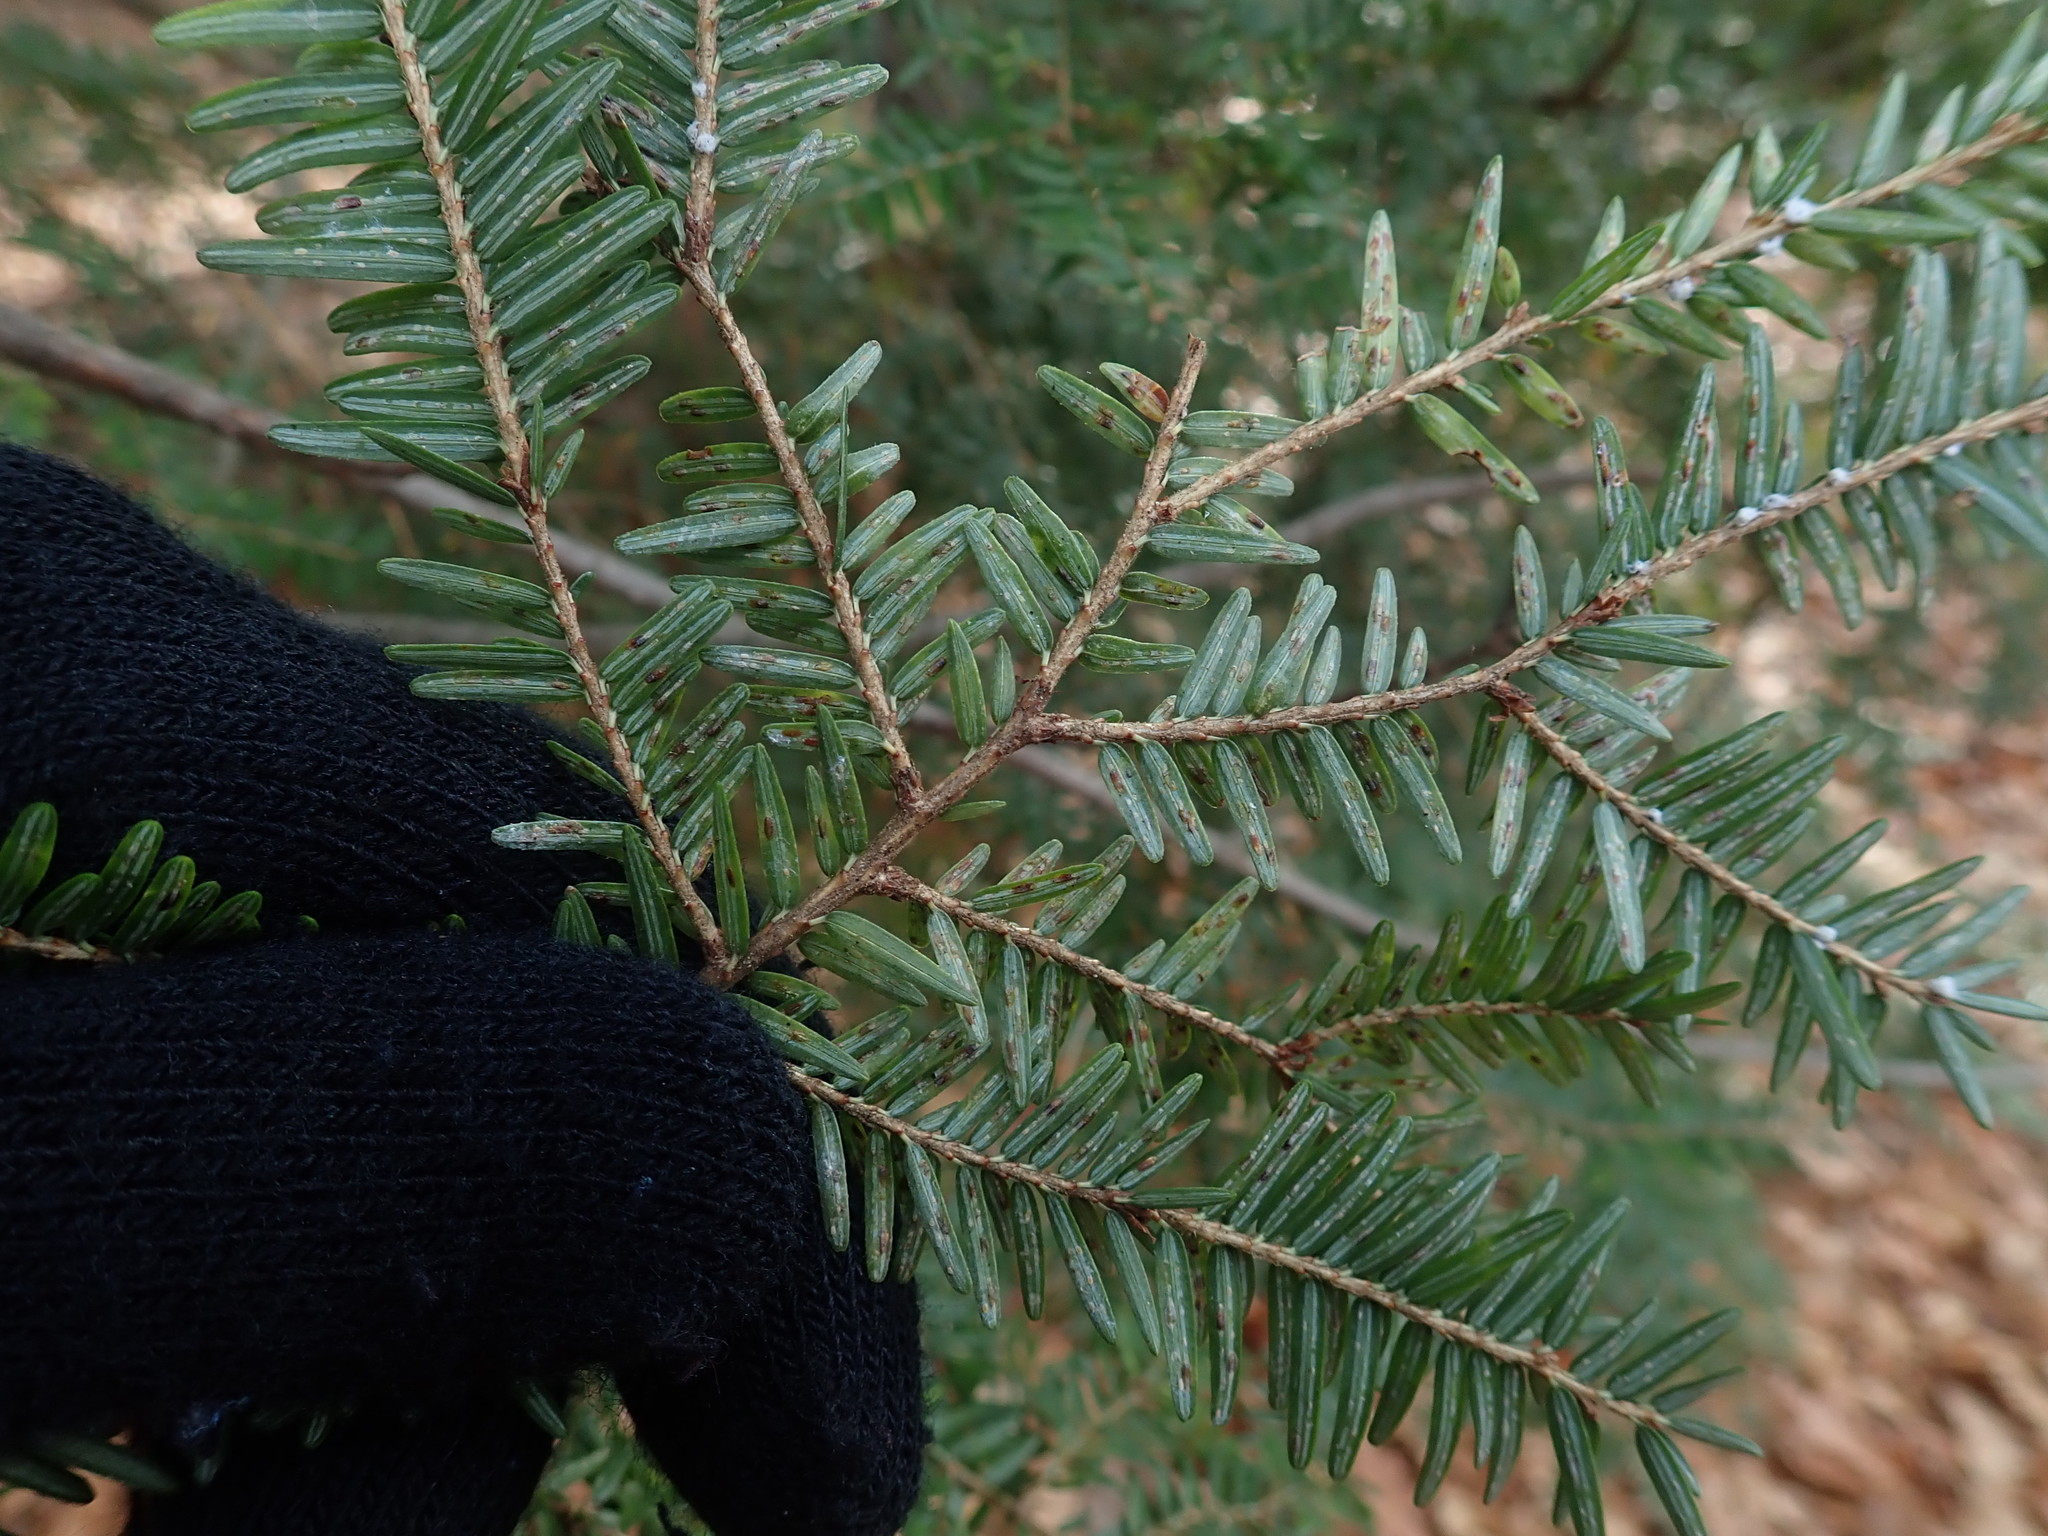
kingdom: Plantae
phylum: Tracheophyta
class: Pinopsida
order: Pinales
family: Pinaceae
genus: Tsuga
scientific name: Tsuga canadensis
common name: Eastern hemlock
